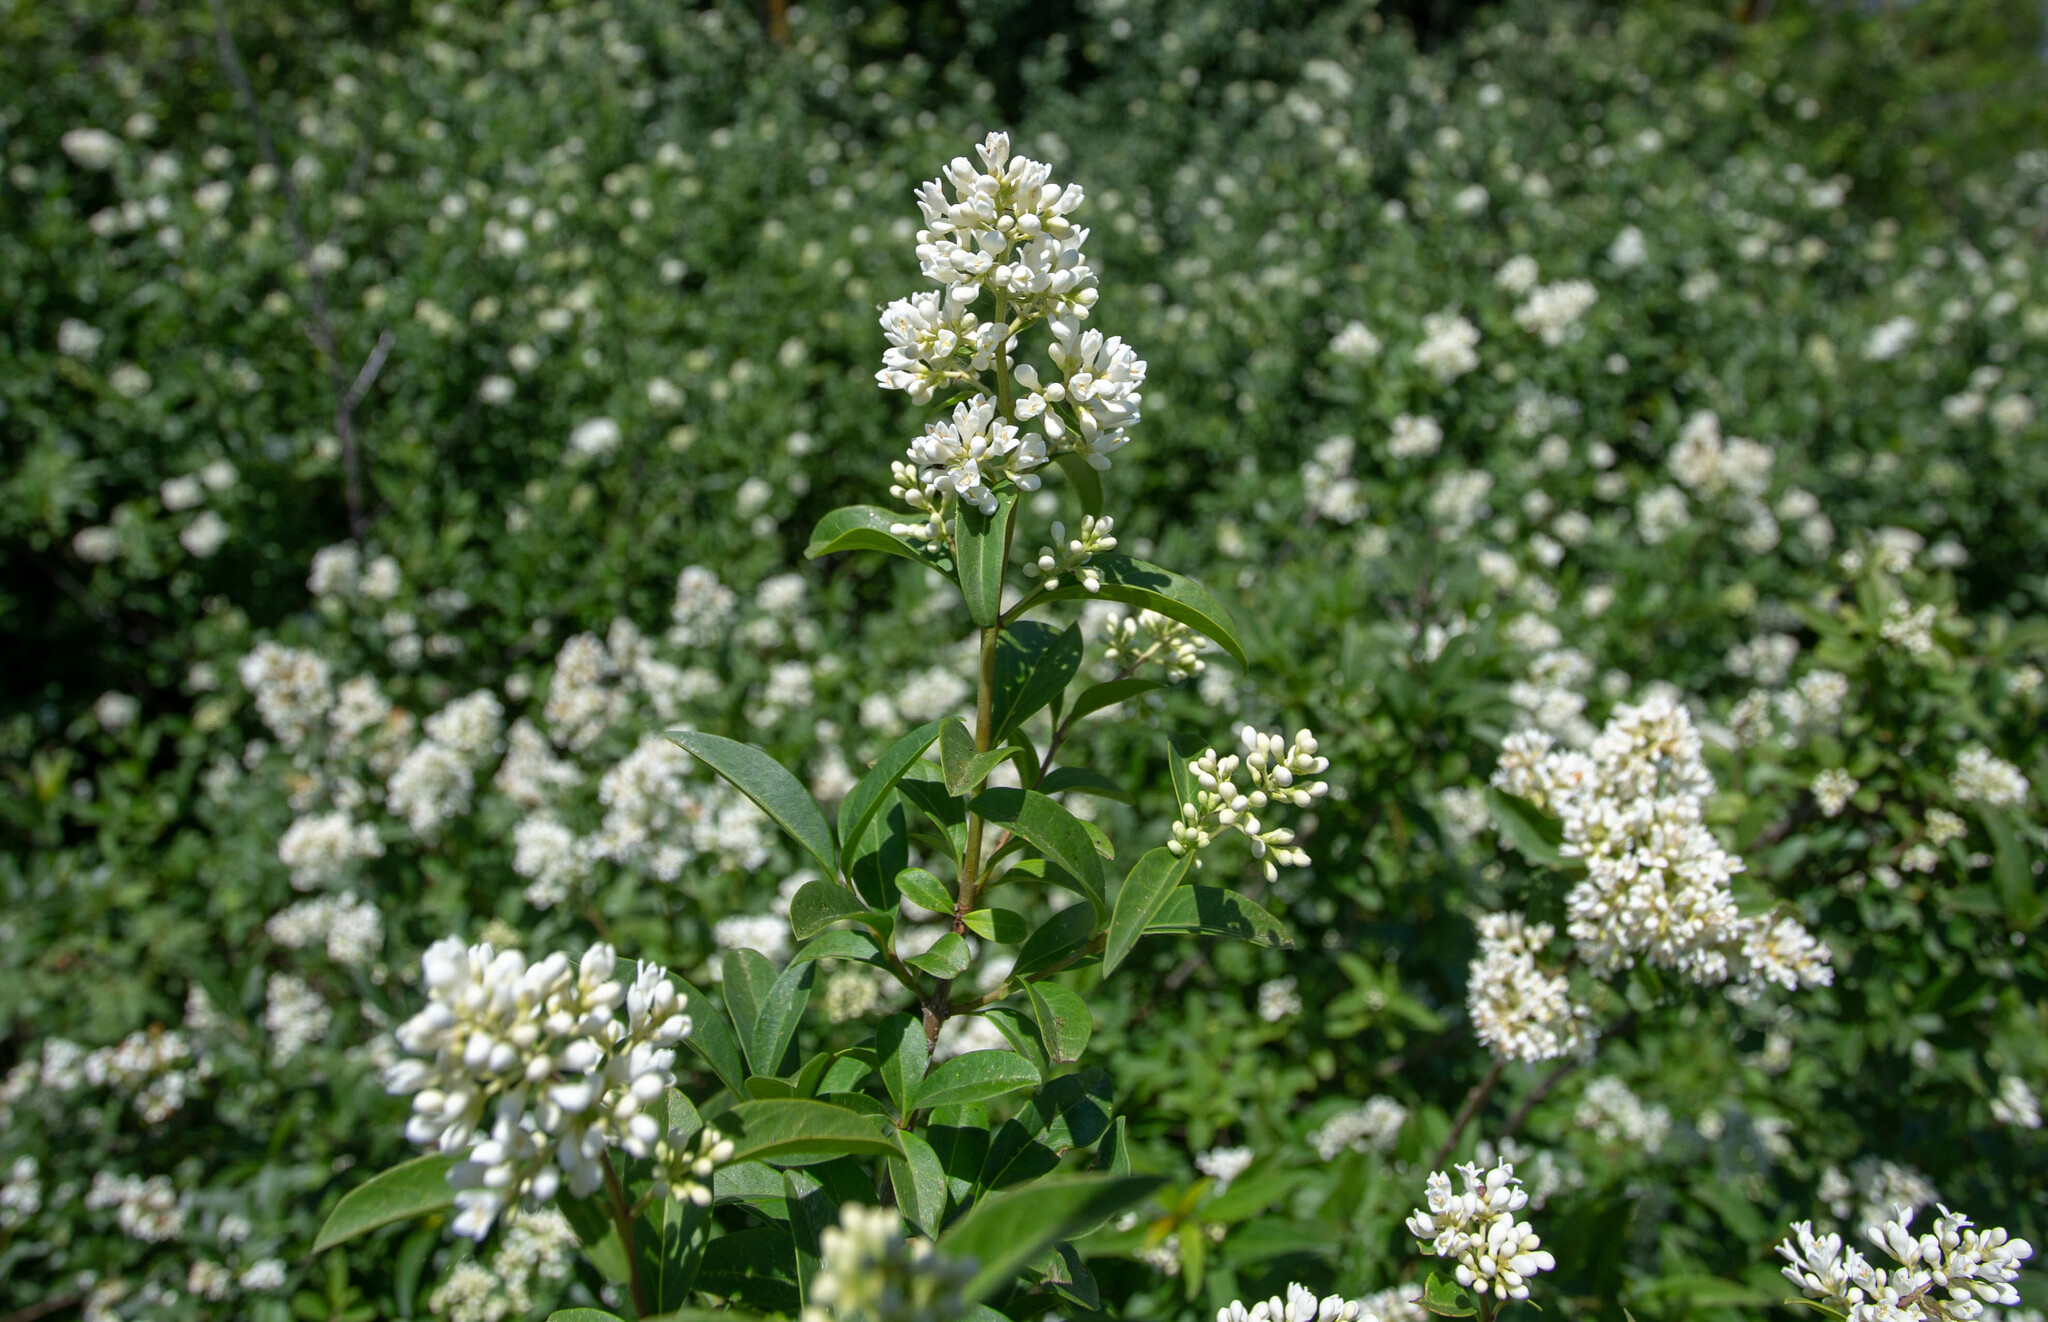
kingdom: Plantae
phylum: Tracheophyta
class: Magnoliopsida
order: Lamiales
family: Oleaceae
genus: Ligustrum
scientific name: Ligustrum vulgare
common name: Wild privet
